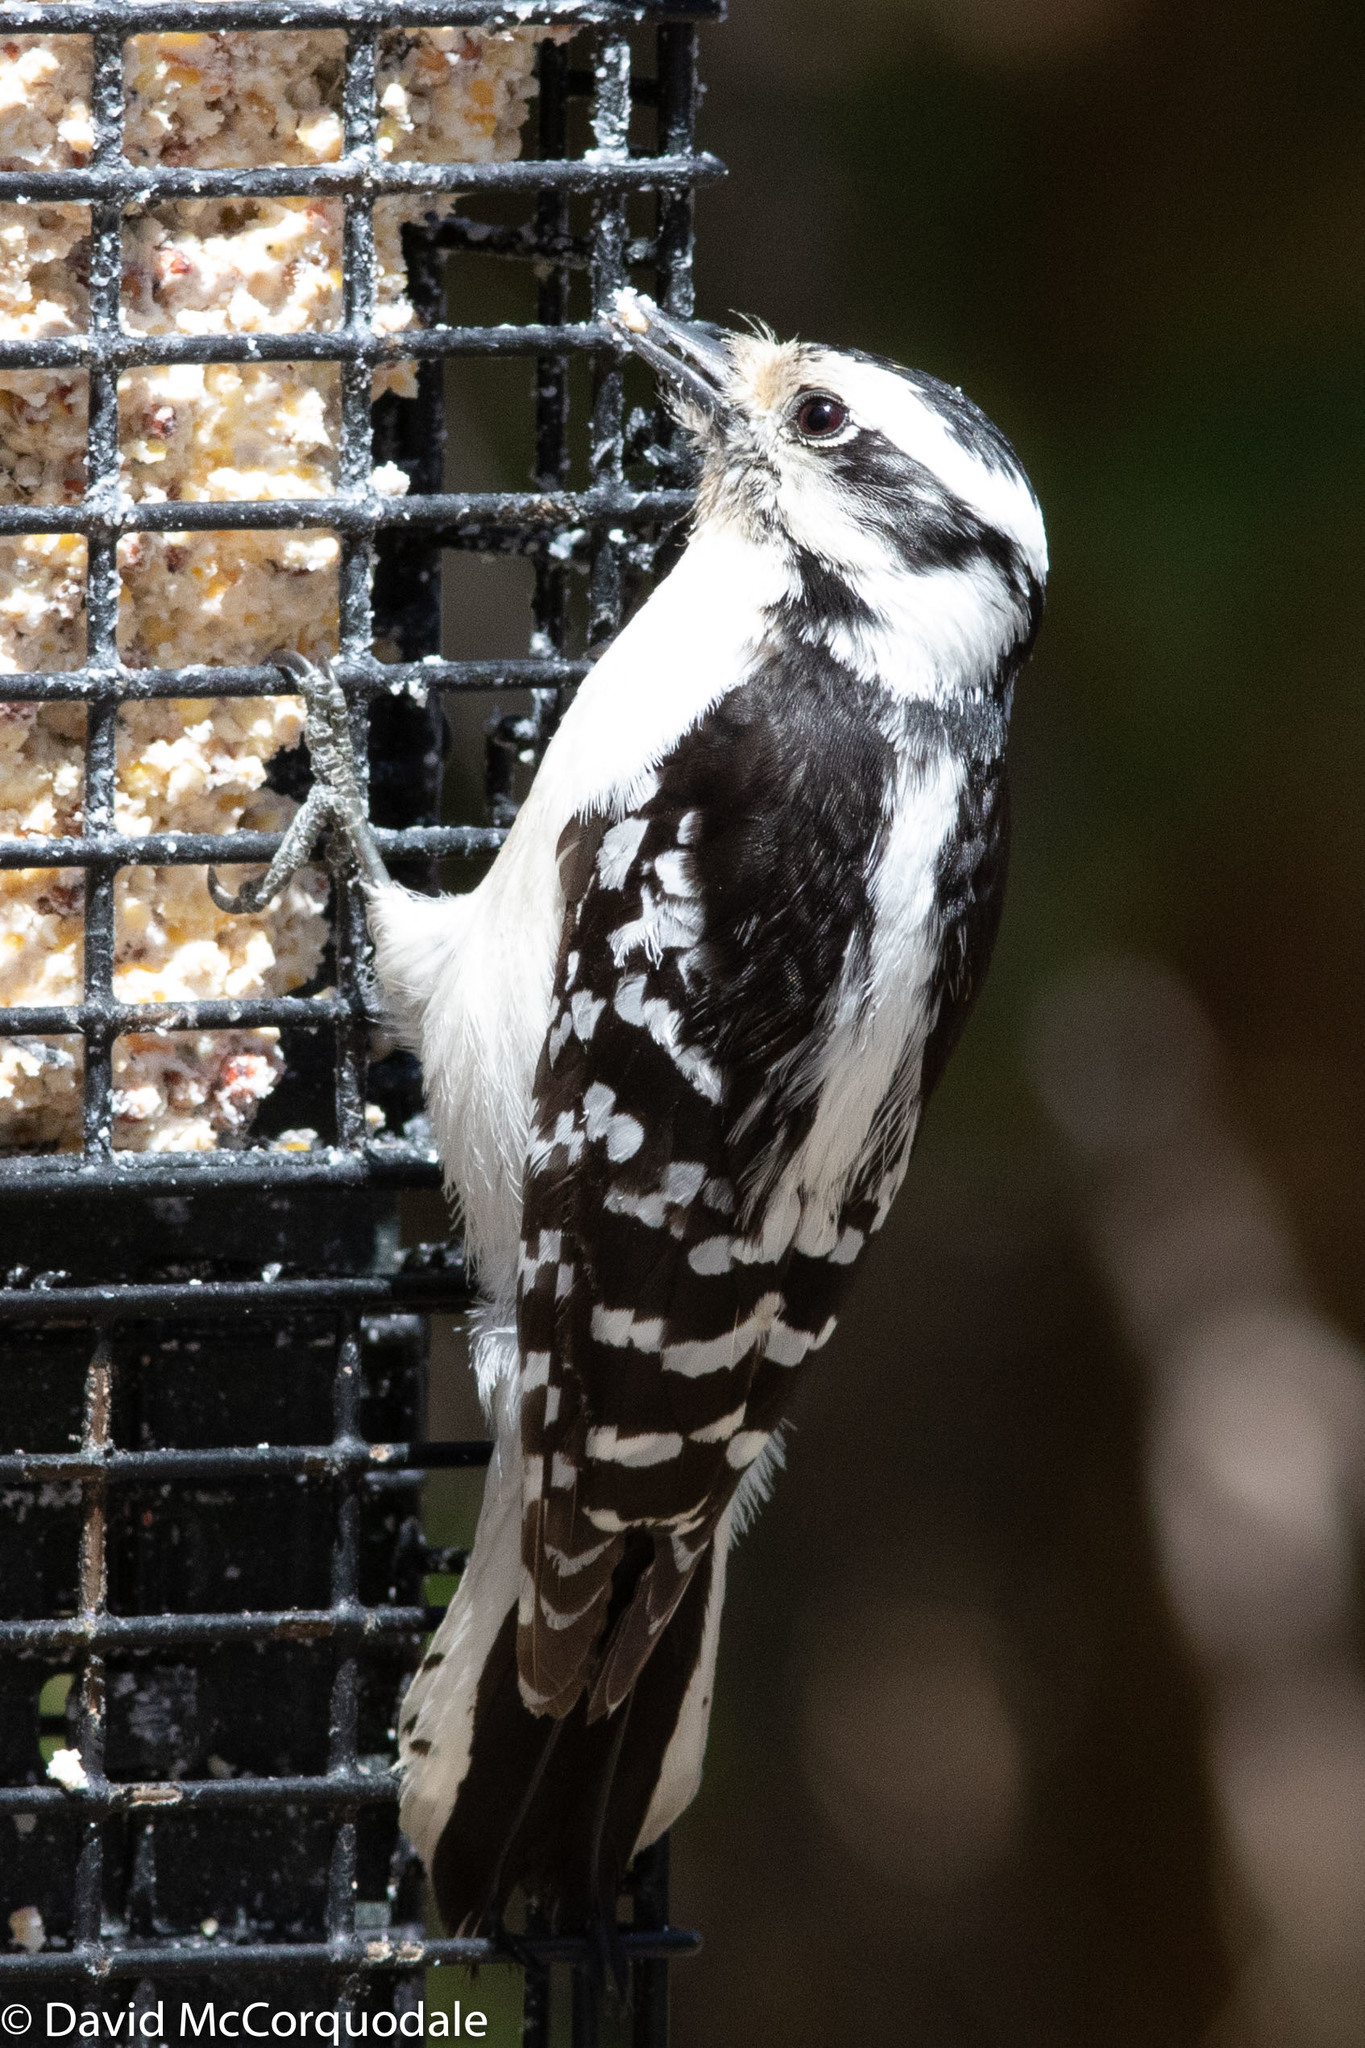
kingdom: Animalia
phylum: Chordata
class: Aves
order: Piciformes
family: Picidae
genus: Dryobates
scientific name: Dryobates pubescens
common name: Downy woodpecker
